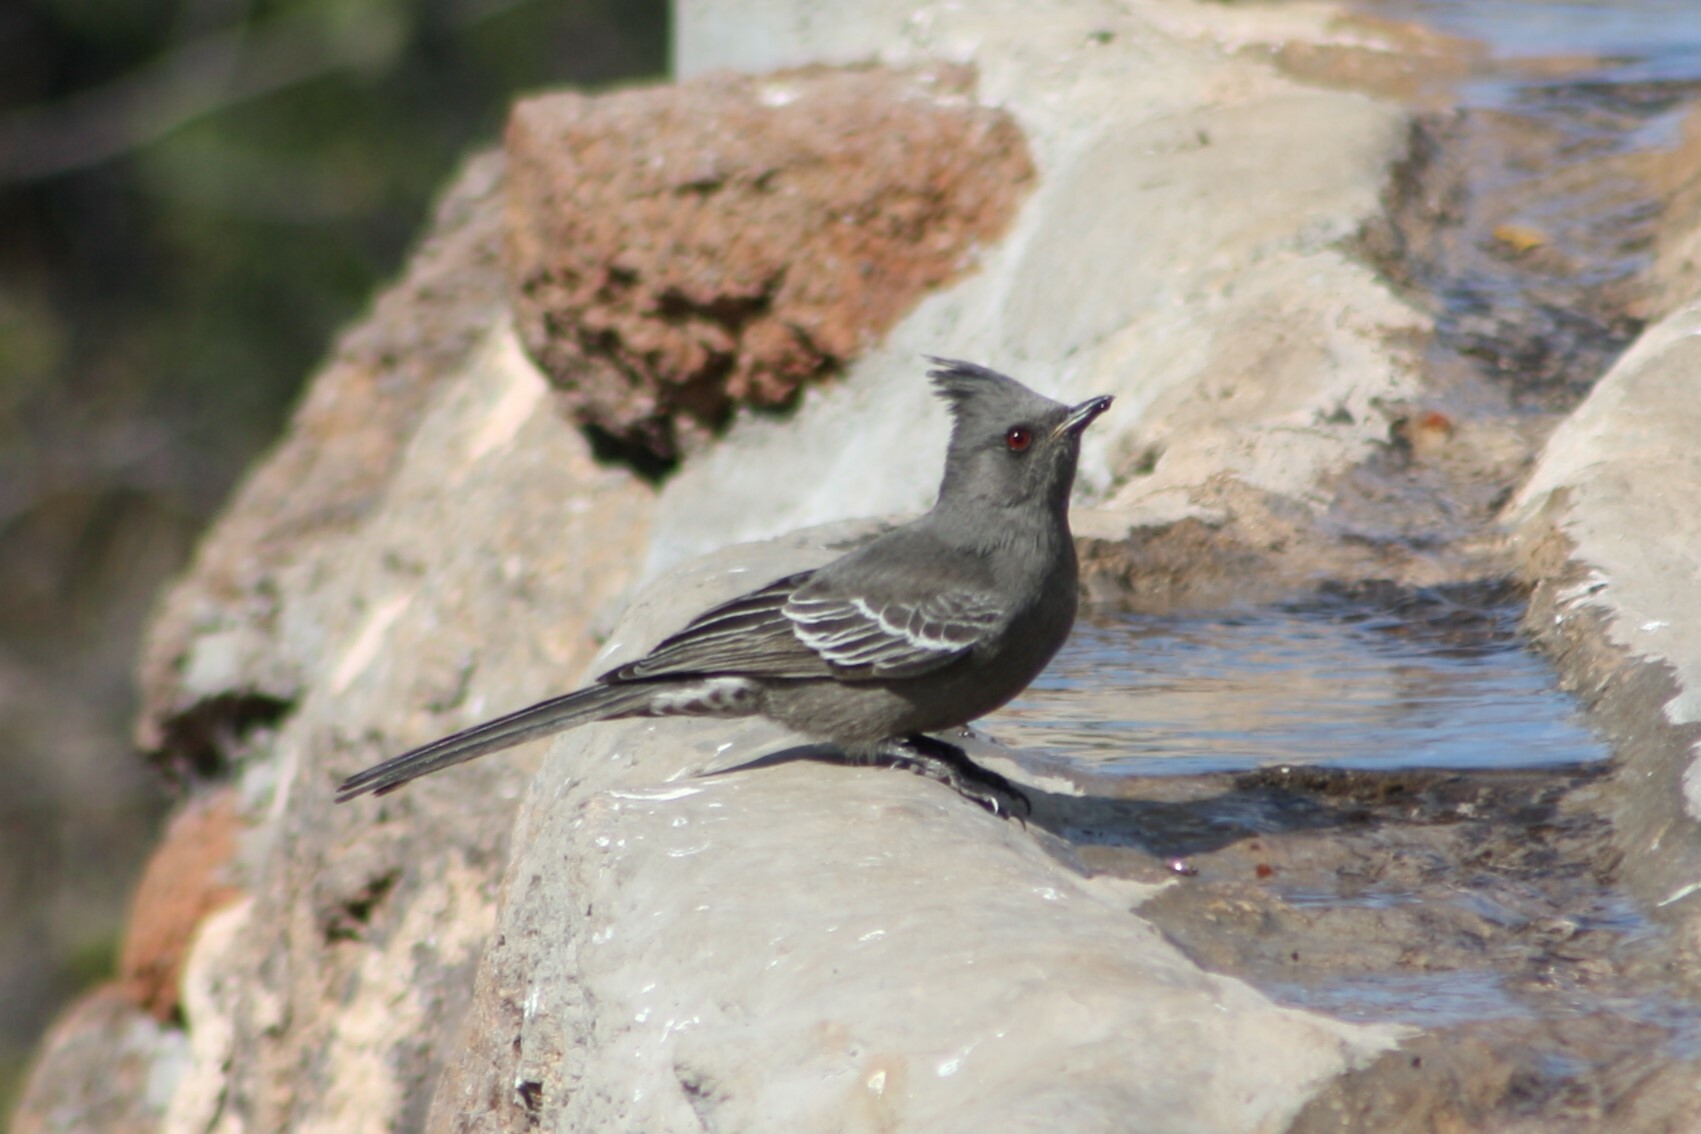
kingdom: Animalia
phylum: Chordata
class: Aves
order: Passeriformes
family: Ptilogonatidae
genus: Phainopepla
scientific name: Phainopepla nitens
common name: Phainopepla
